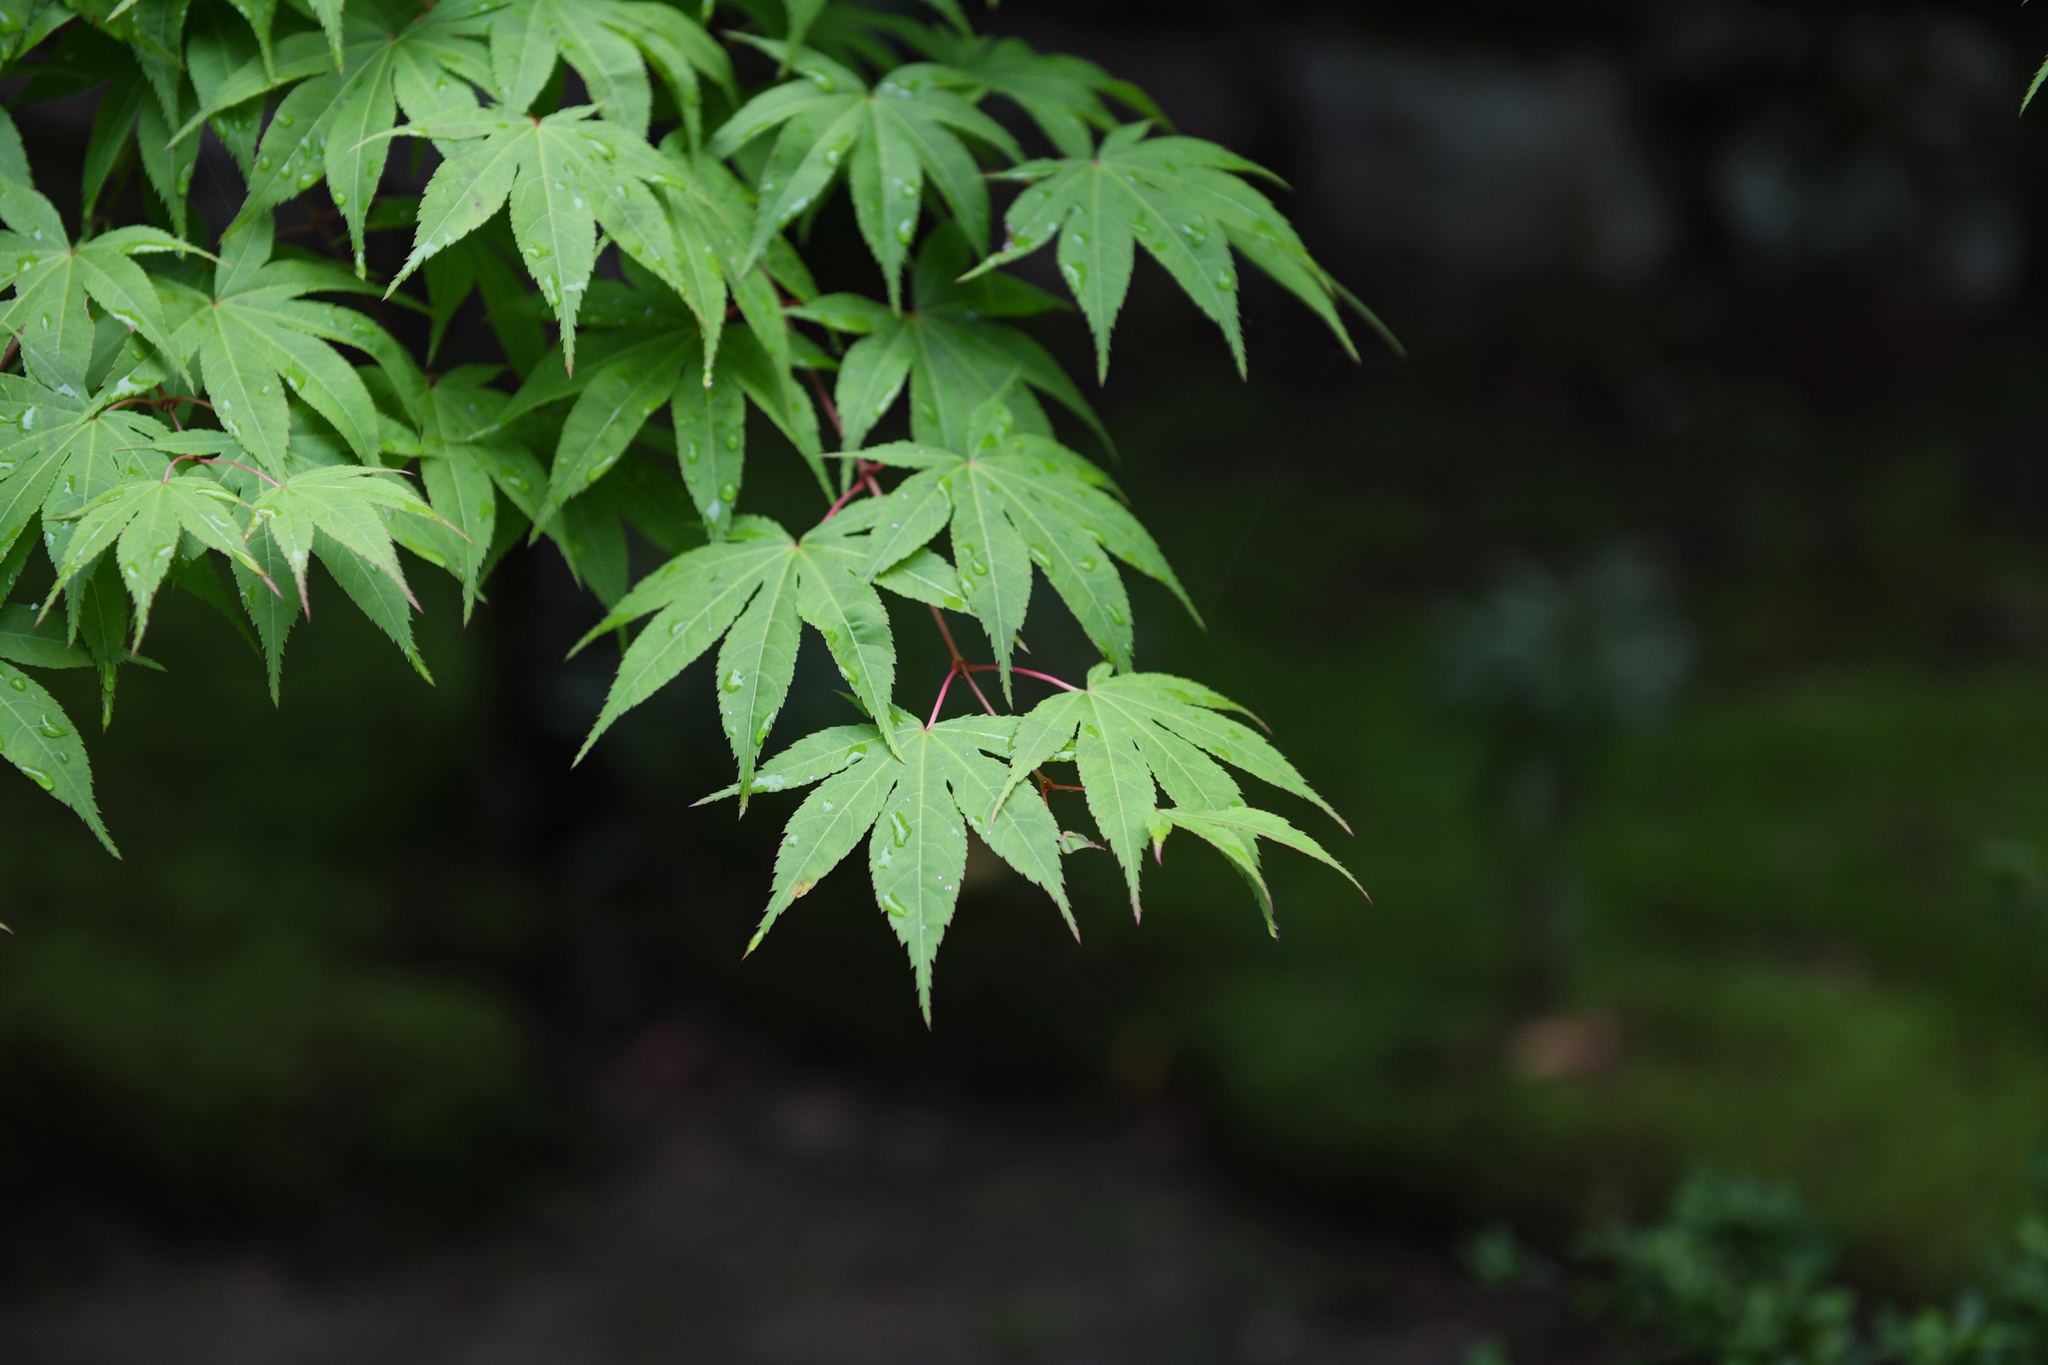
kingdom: Plantae
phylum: Tracheophyta
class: Magnoliopsida
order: Sapindales
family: Sapindaceae
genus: Acer
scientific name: Acer palmatum
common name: Japanese maple
